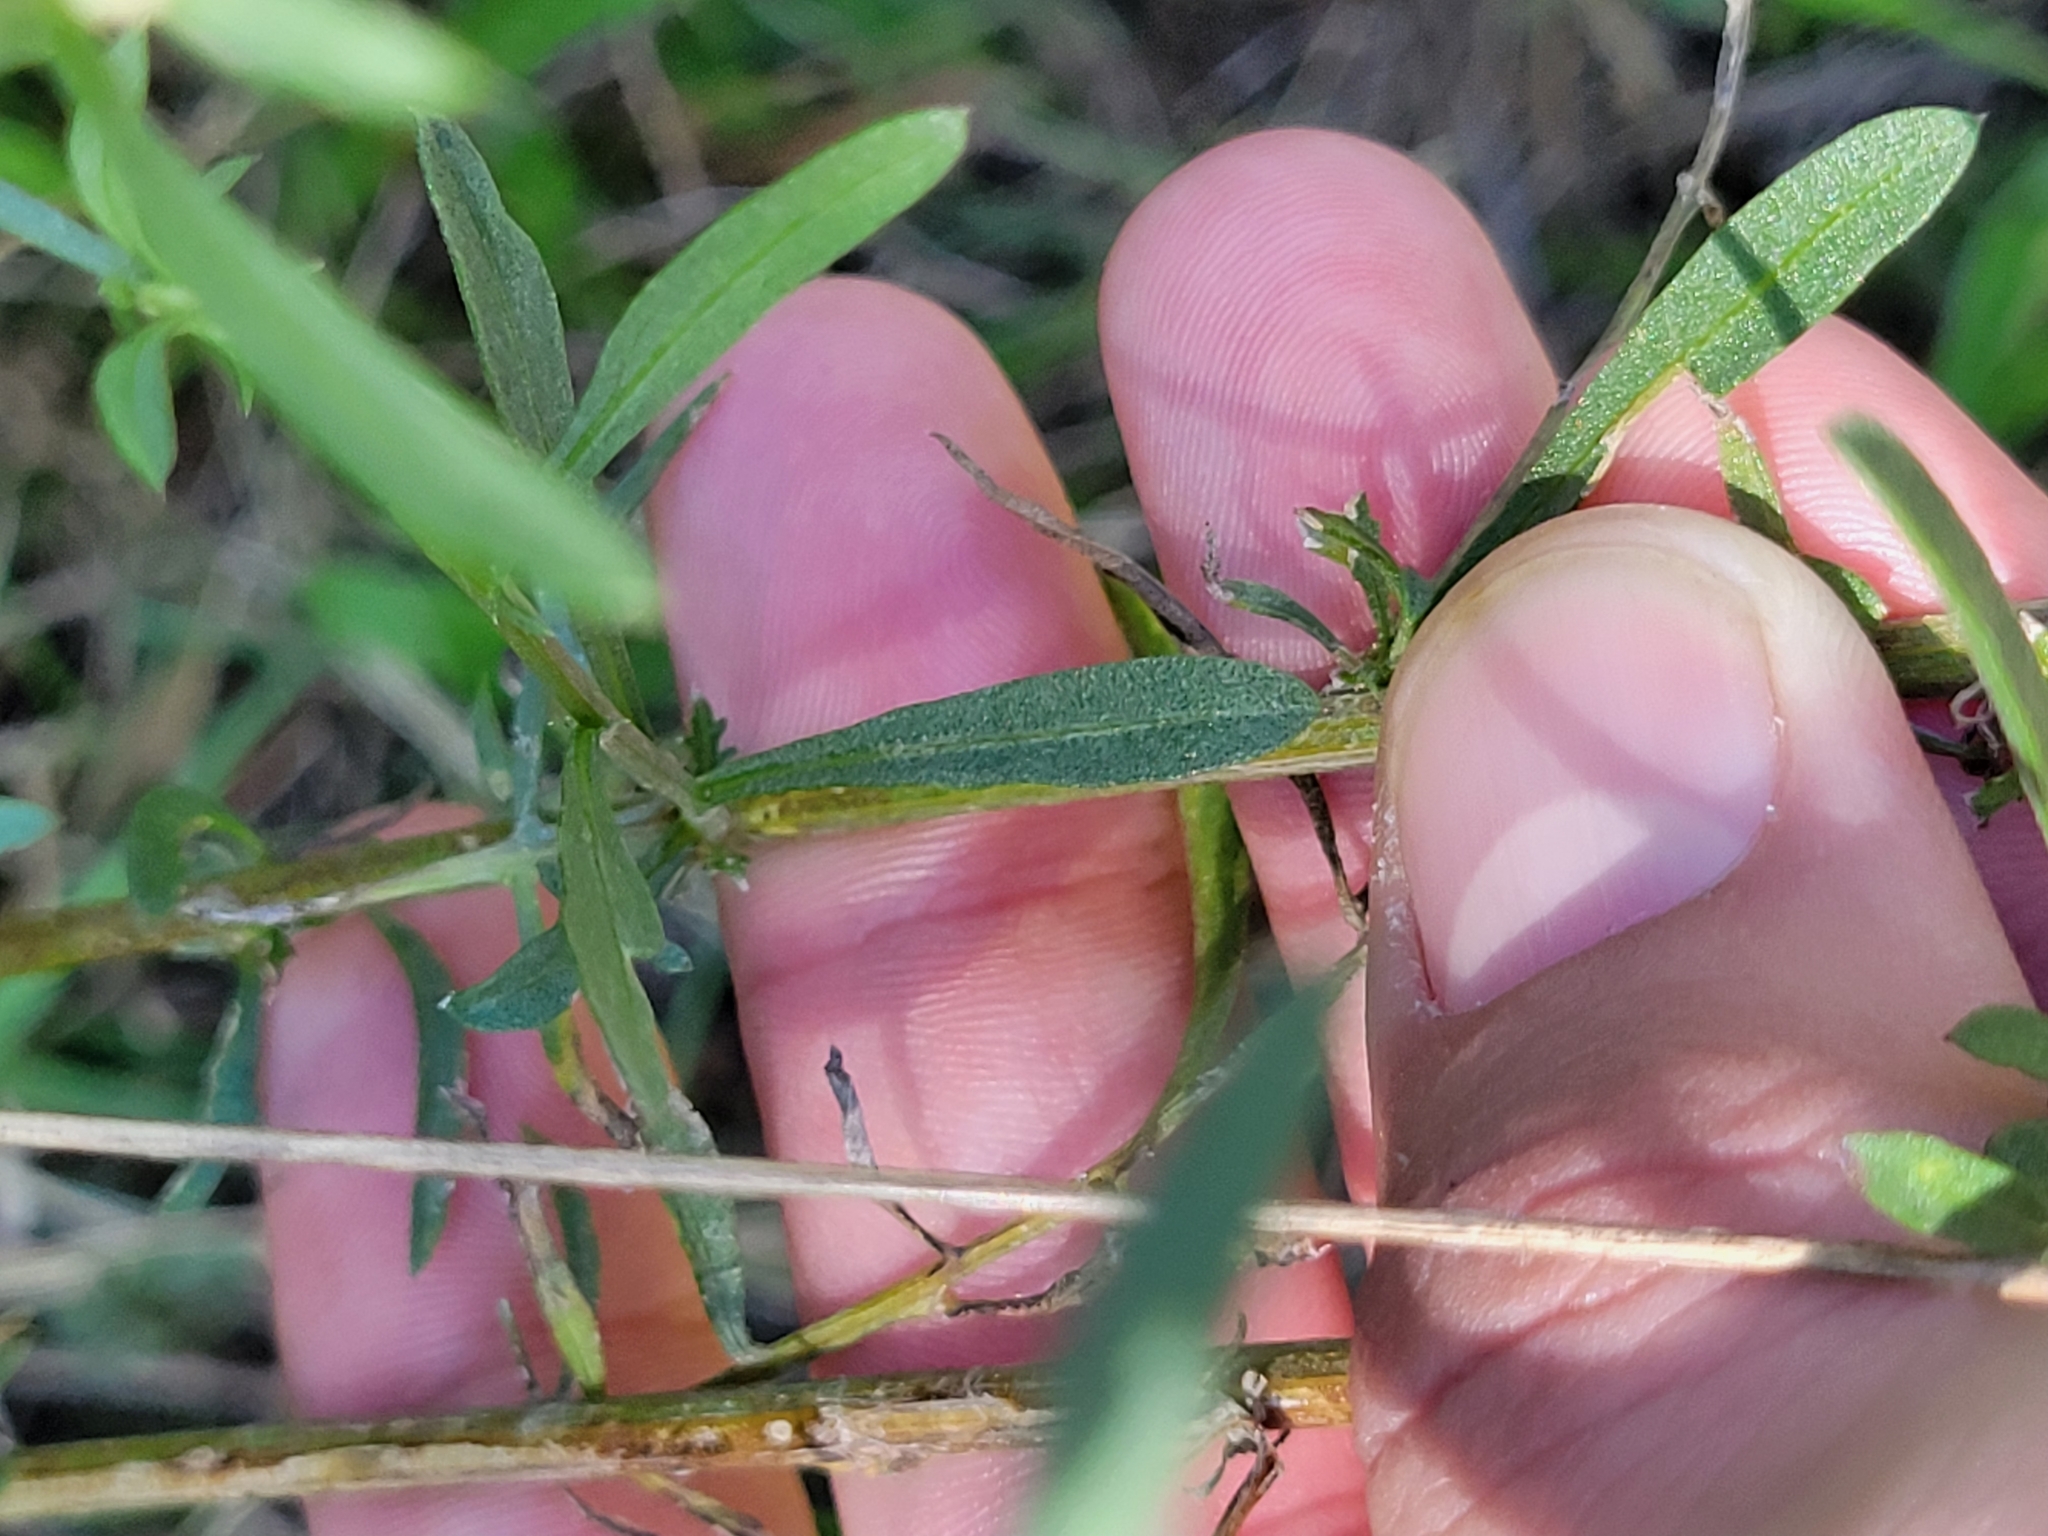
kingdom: Plantae
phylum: Tracheophyta
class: Magnoliopsida
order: Asterales
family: Asteraceae
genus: Centaurea
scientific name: Centaurea stoebe
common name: Spotted knapweed
